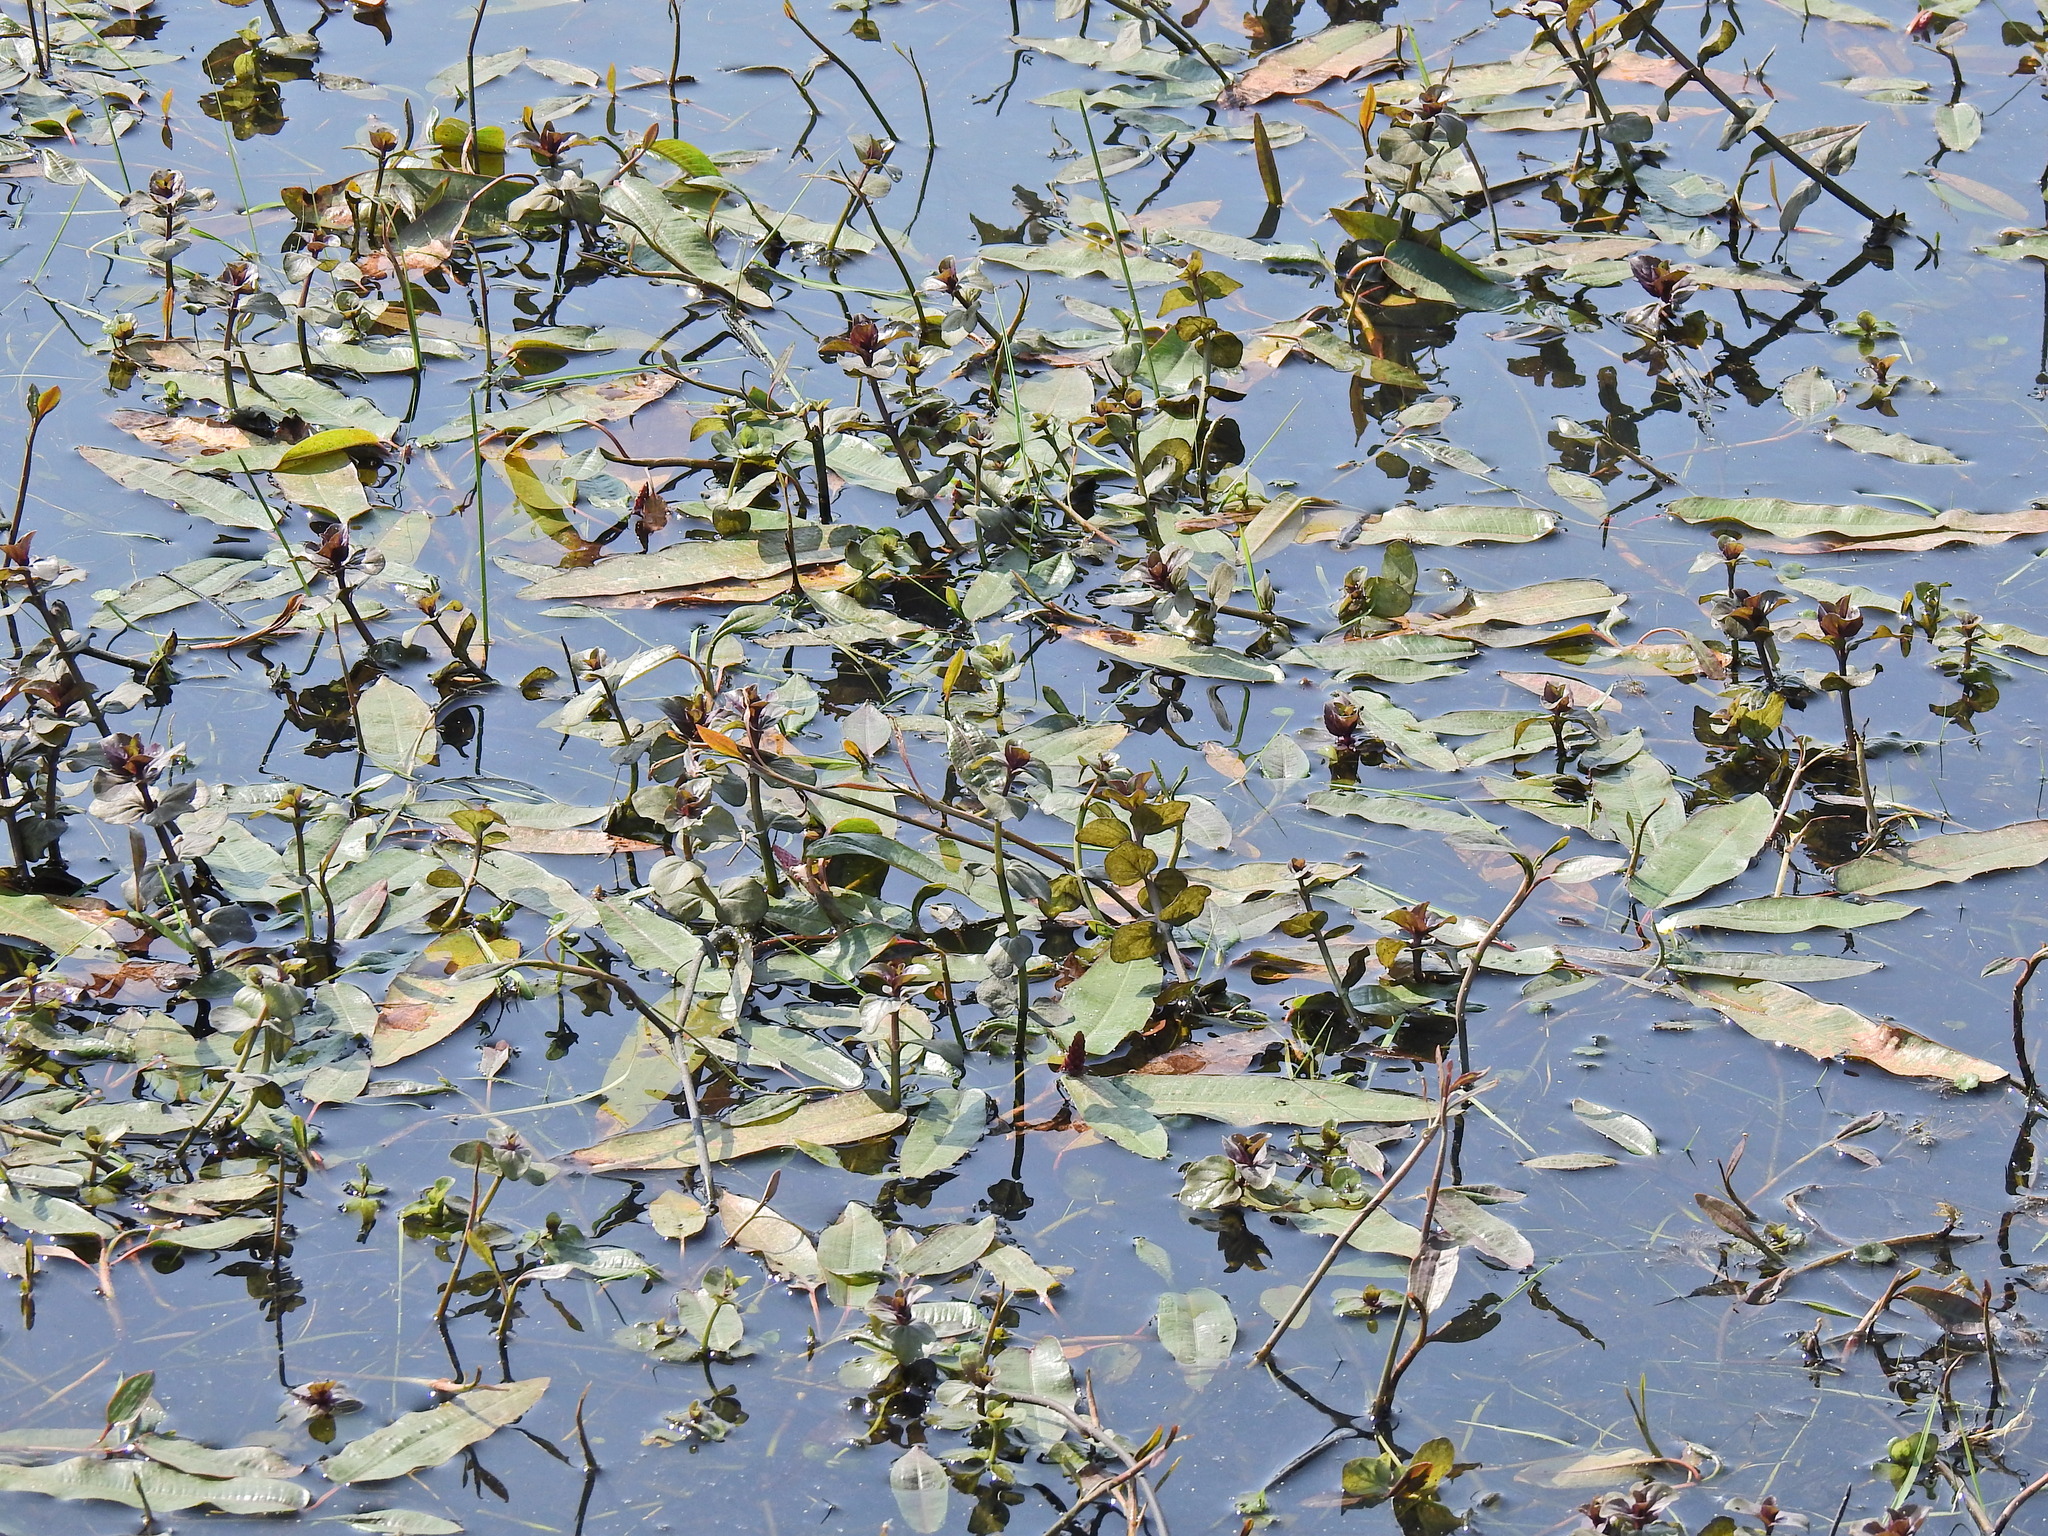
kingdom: Plantae
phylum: Tracheophyta
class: Magnoliopsida
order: Caryophyllales
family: Polygonaceae
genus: Persicaria
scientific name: Persicaria amphibia
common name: Amphibious bistort
